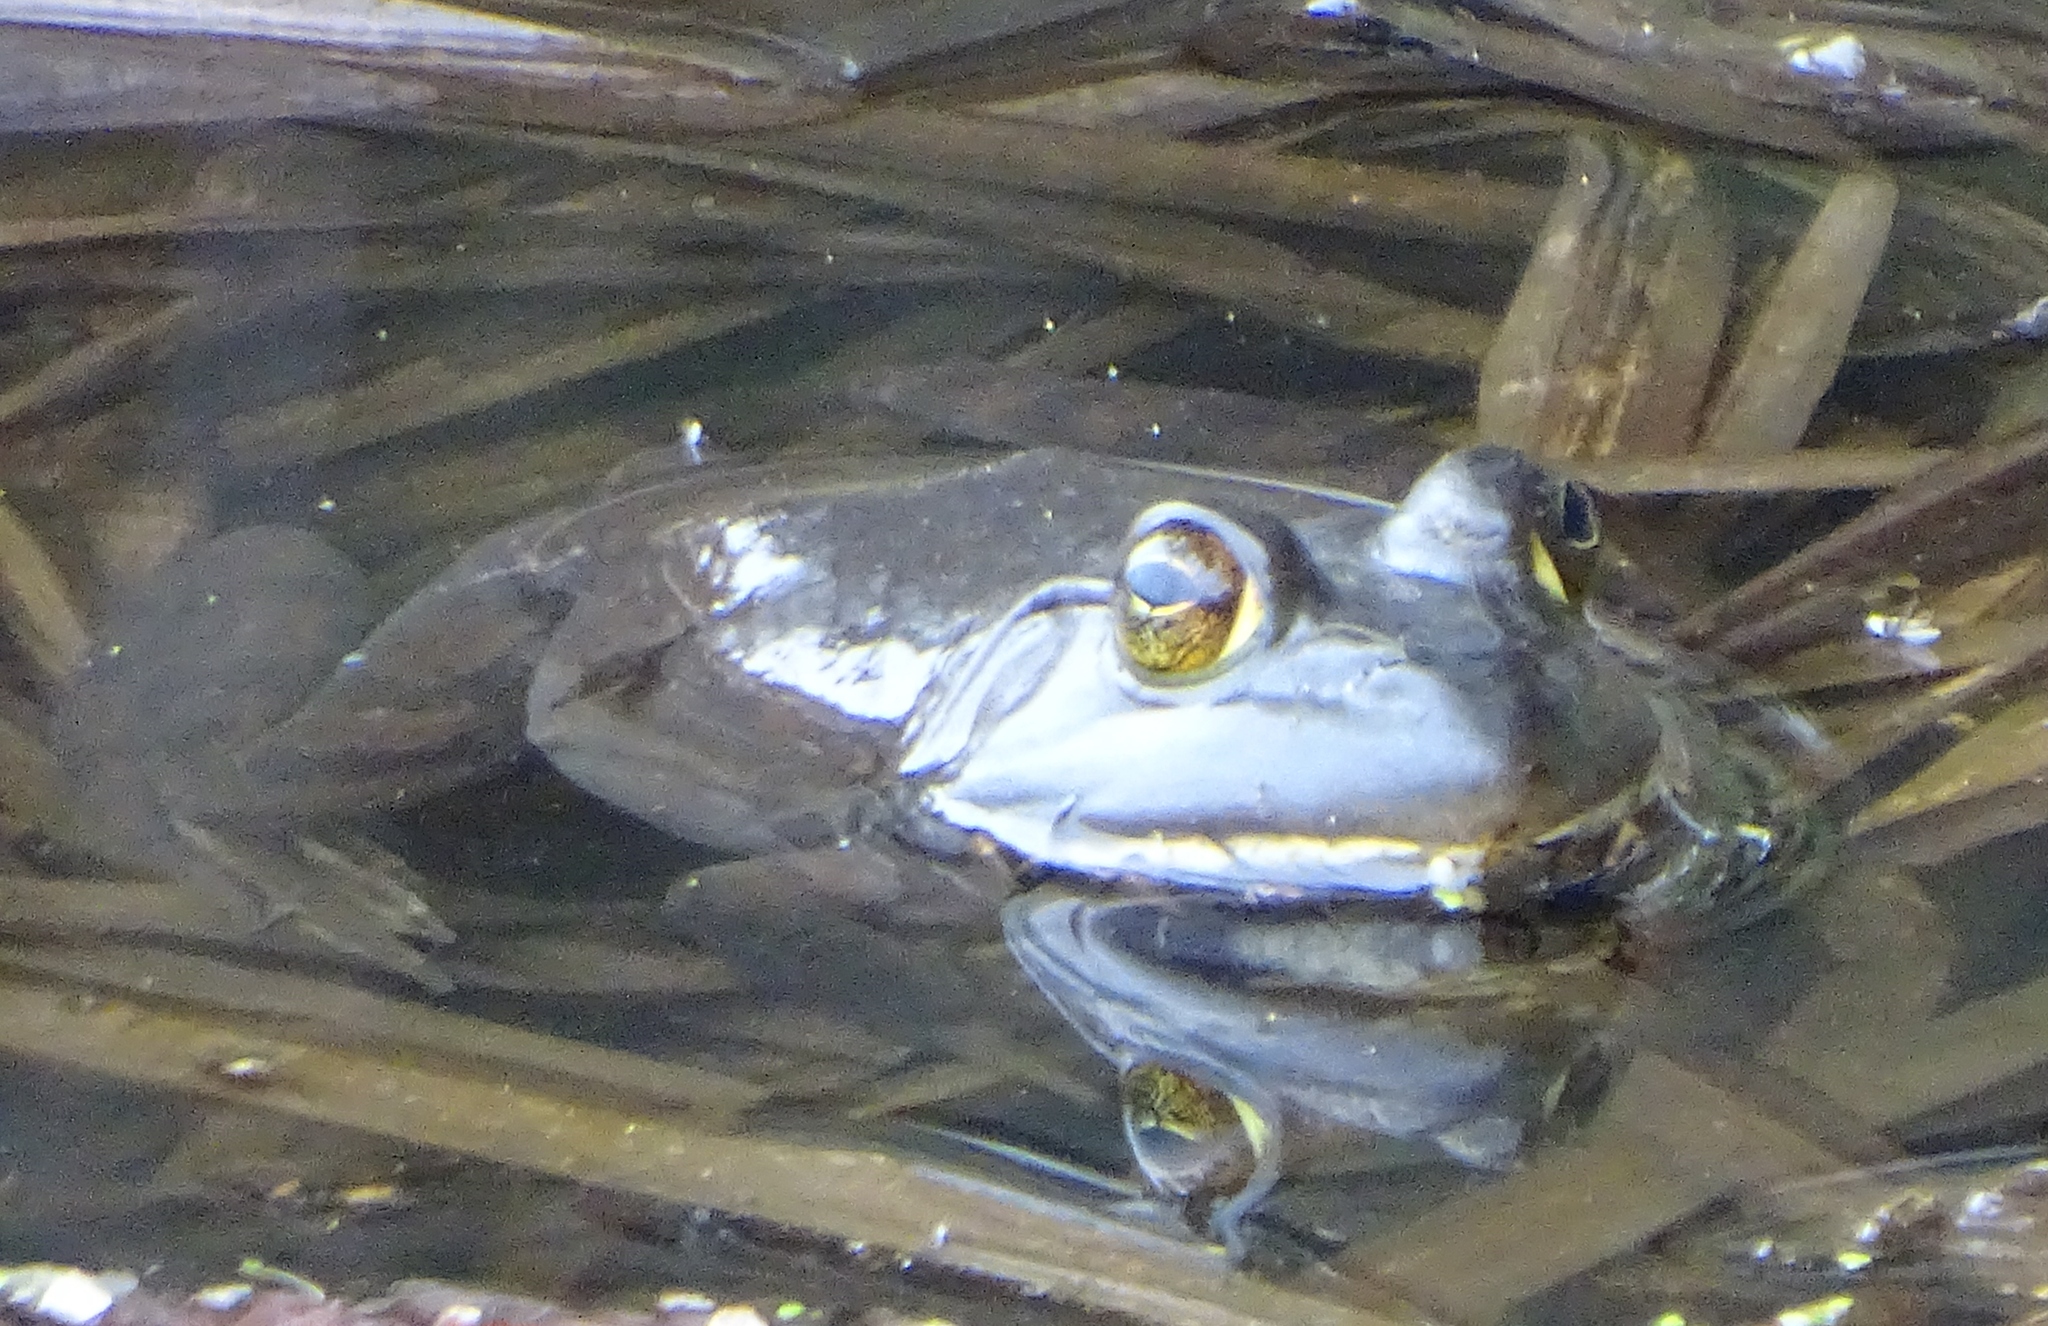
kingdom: Animalia
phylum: Chordata
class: Amphibia
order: Anura
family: Ranidae
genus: Lithobates
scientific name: Lithobates catesbeianus
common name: American bullfrog
